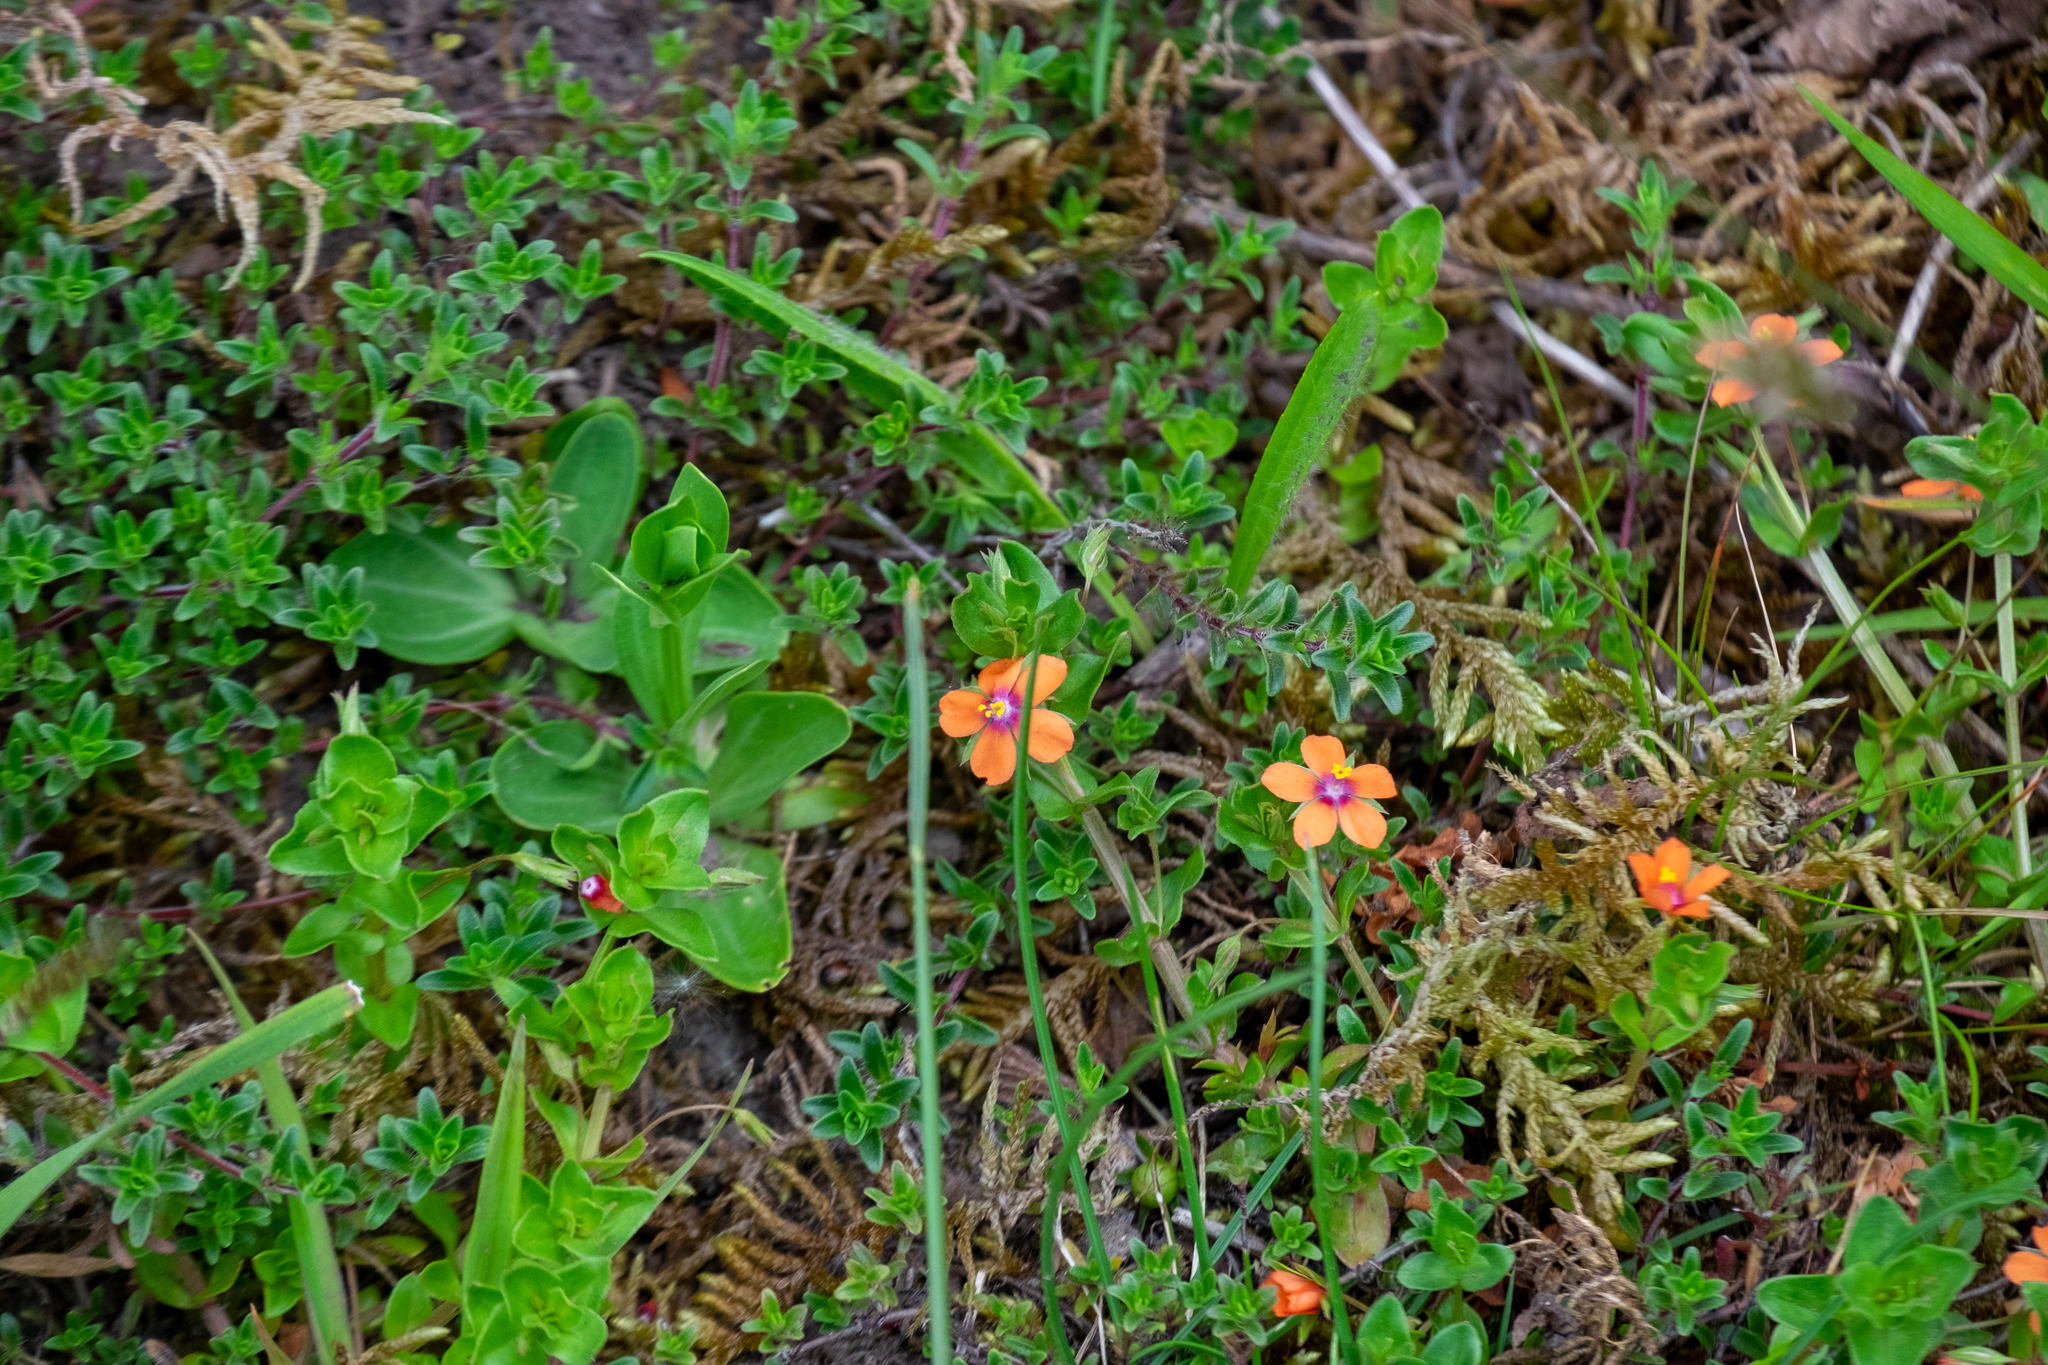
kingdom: Plantae
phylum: Tracheophyta
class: Magnoliopsida
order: Ericales
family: Primulaceae
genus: Lysimachia
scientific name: Lysimachia arvensis
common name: Scarlet pimpernel
